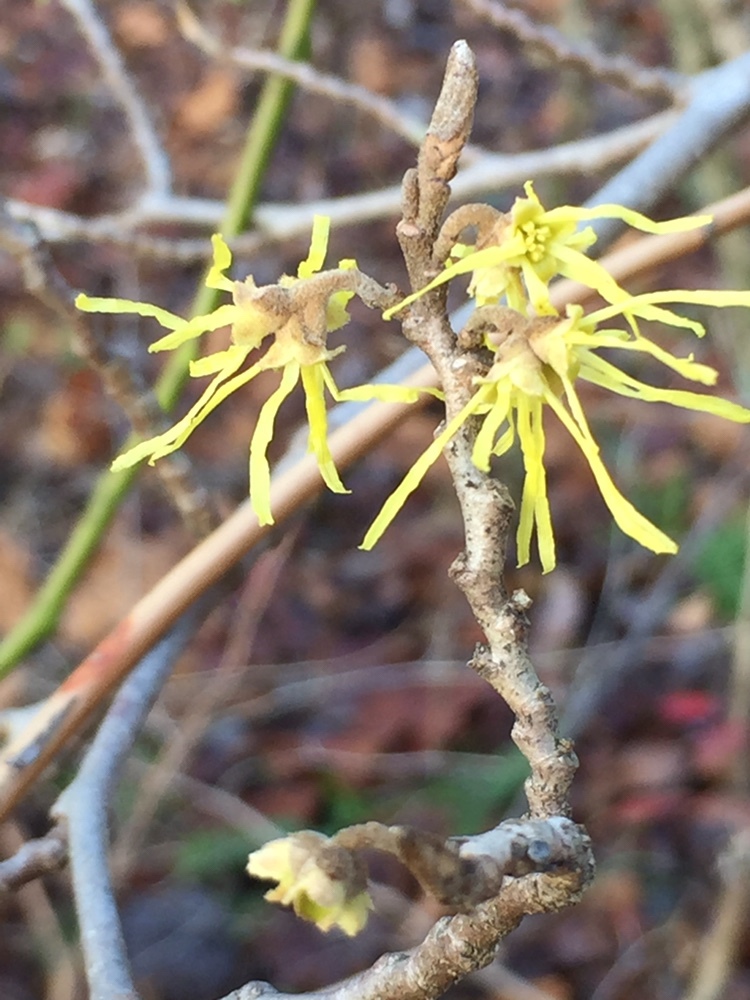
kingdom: Plantae
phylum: Tracheophyta
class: Magnoliopsida
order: Saxifragales
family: Hamamelidaceae
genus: Hamamelis
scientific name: Hamamelis virginiana
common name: Witch-hazel
